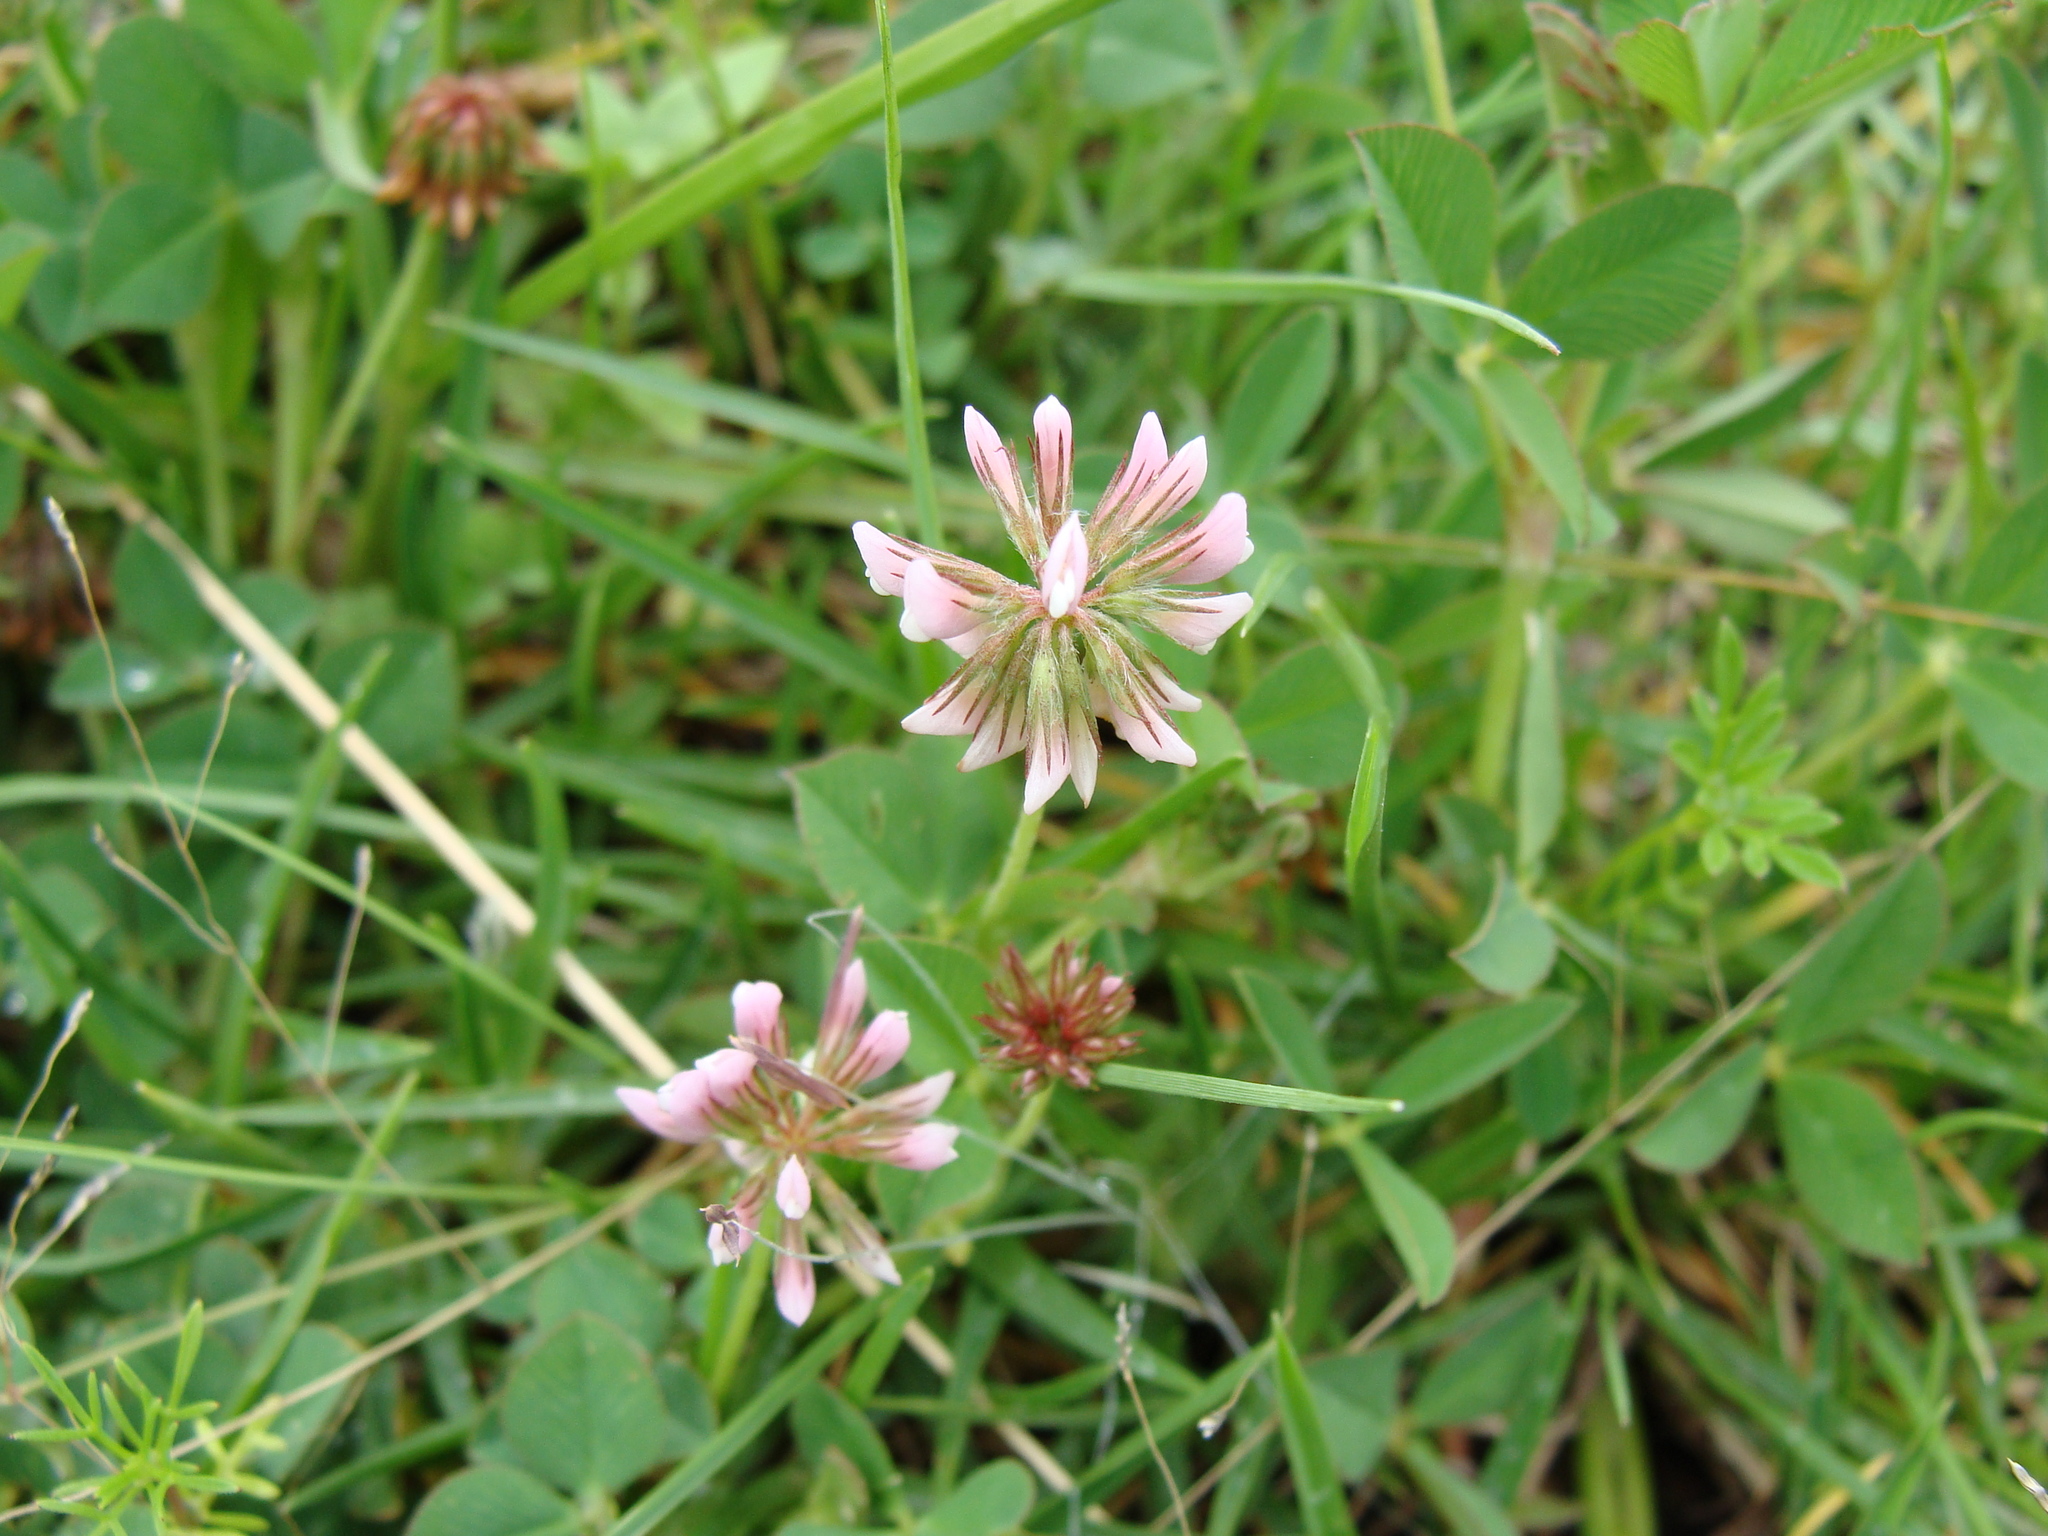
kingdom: Plantae
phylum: Tracheophyta
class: Magnoliopsida
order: Fabales
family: Fabaceae
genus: Trifolium
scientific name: Trifolium amabile
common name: Aztec clover
